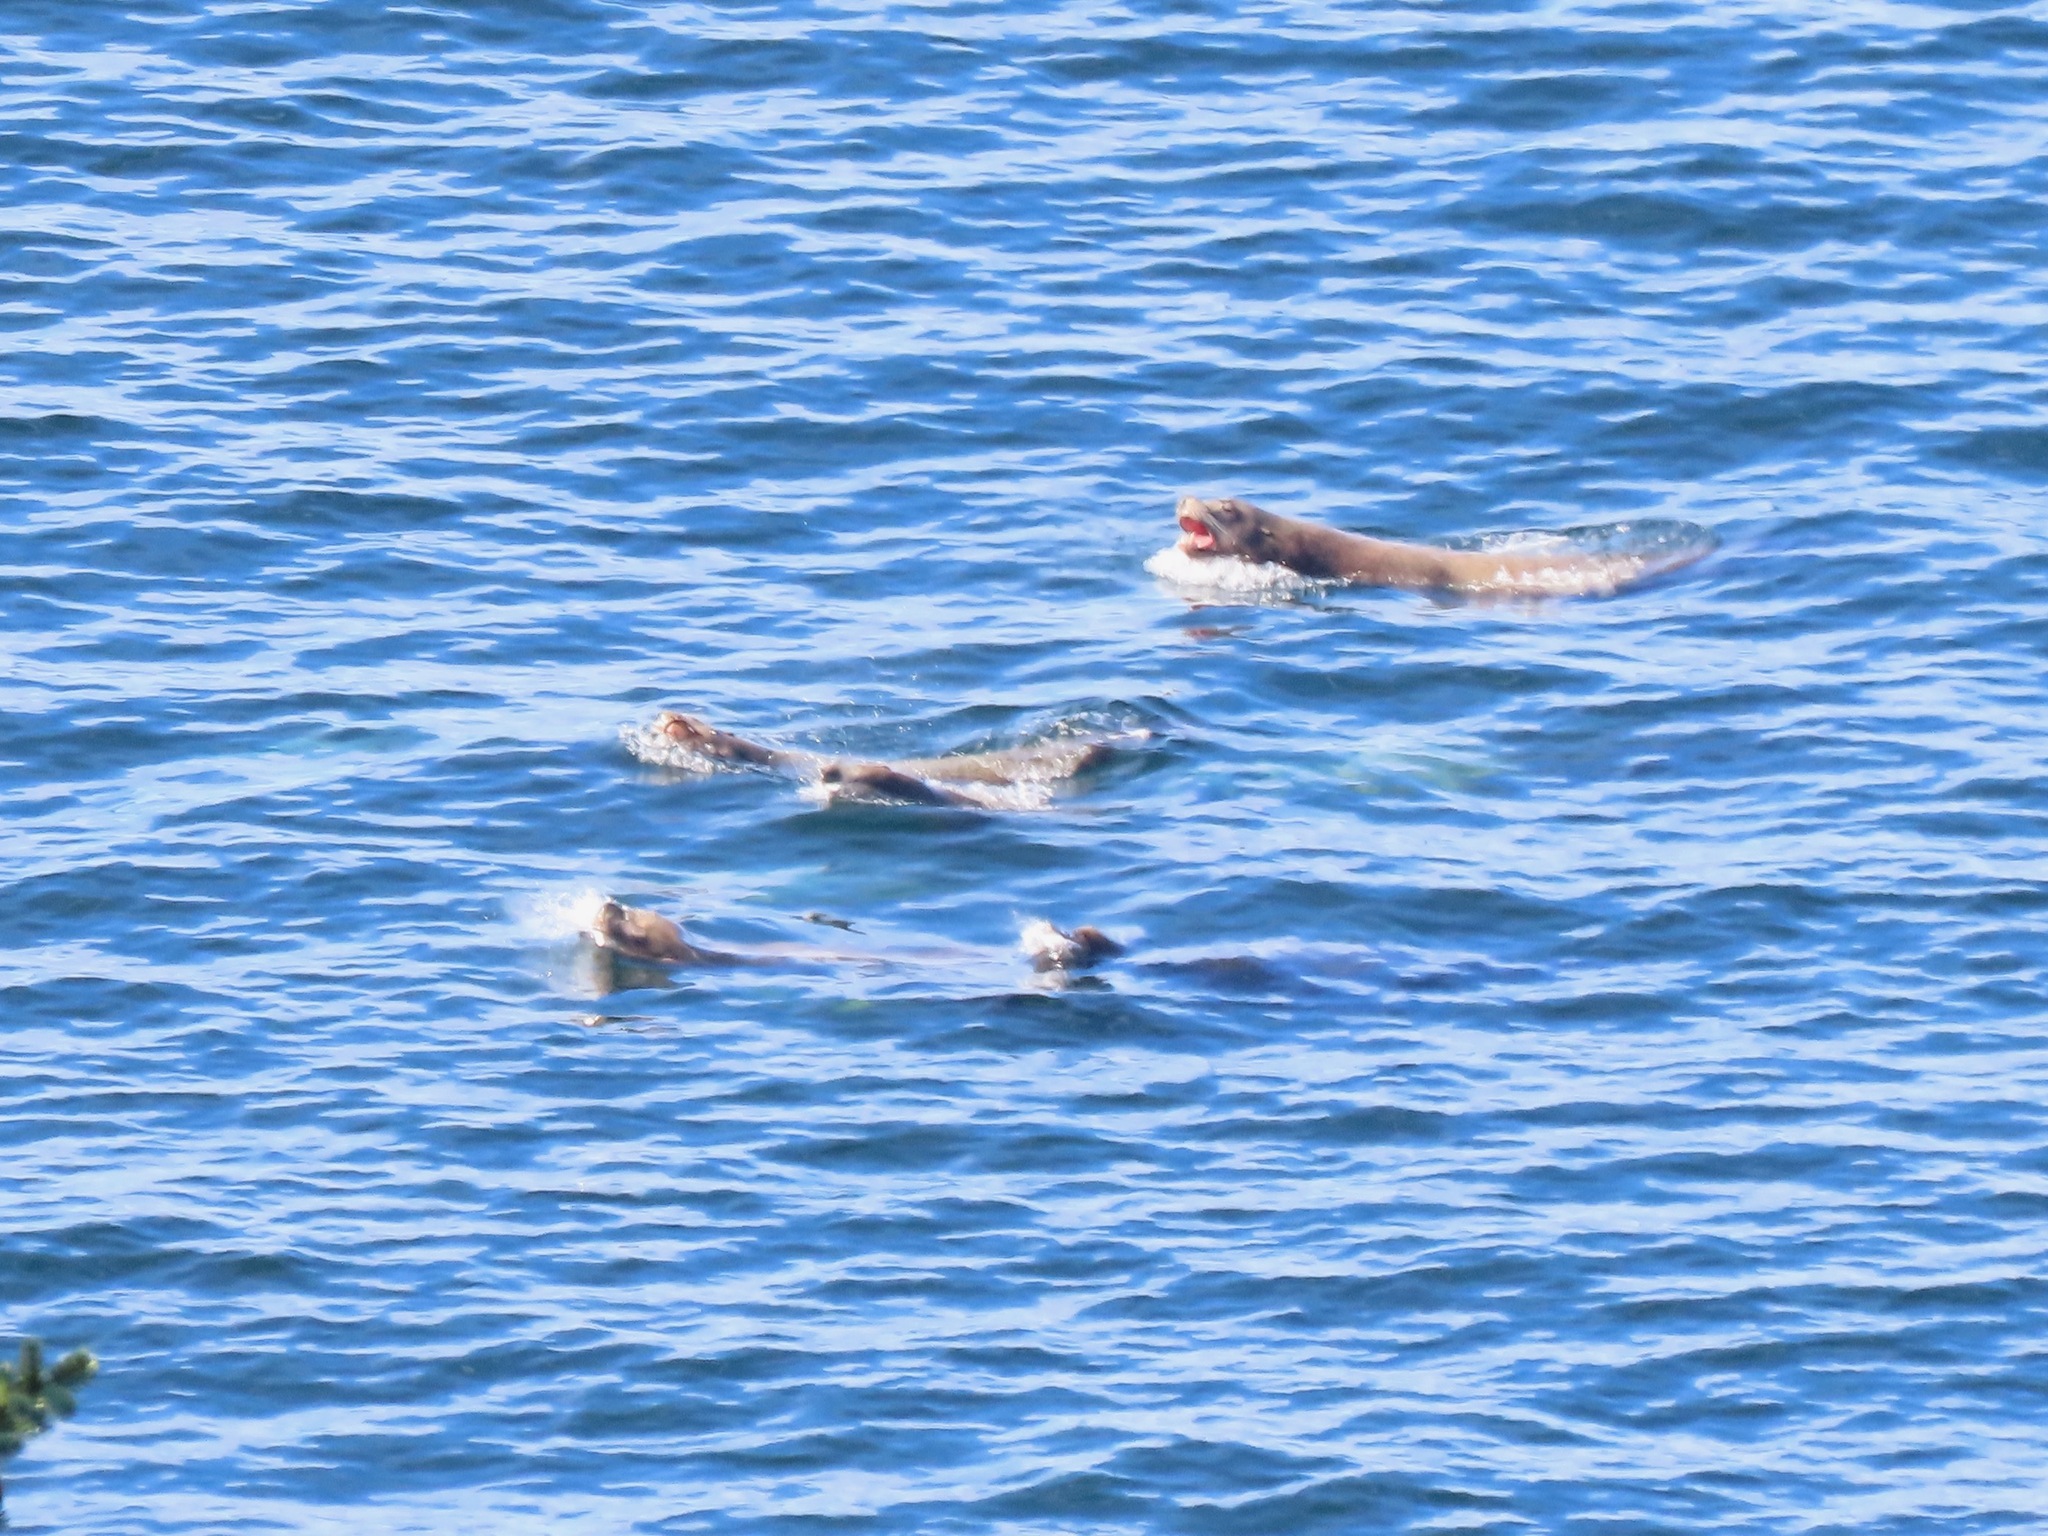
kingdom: Animalia
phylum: Chordata
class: Mammalia
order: Carnivora
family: Otariidae
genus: Zalophus
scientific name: Zalophus californianus
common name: California sea lion
